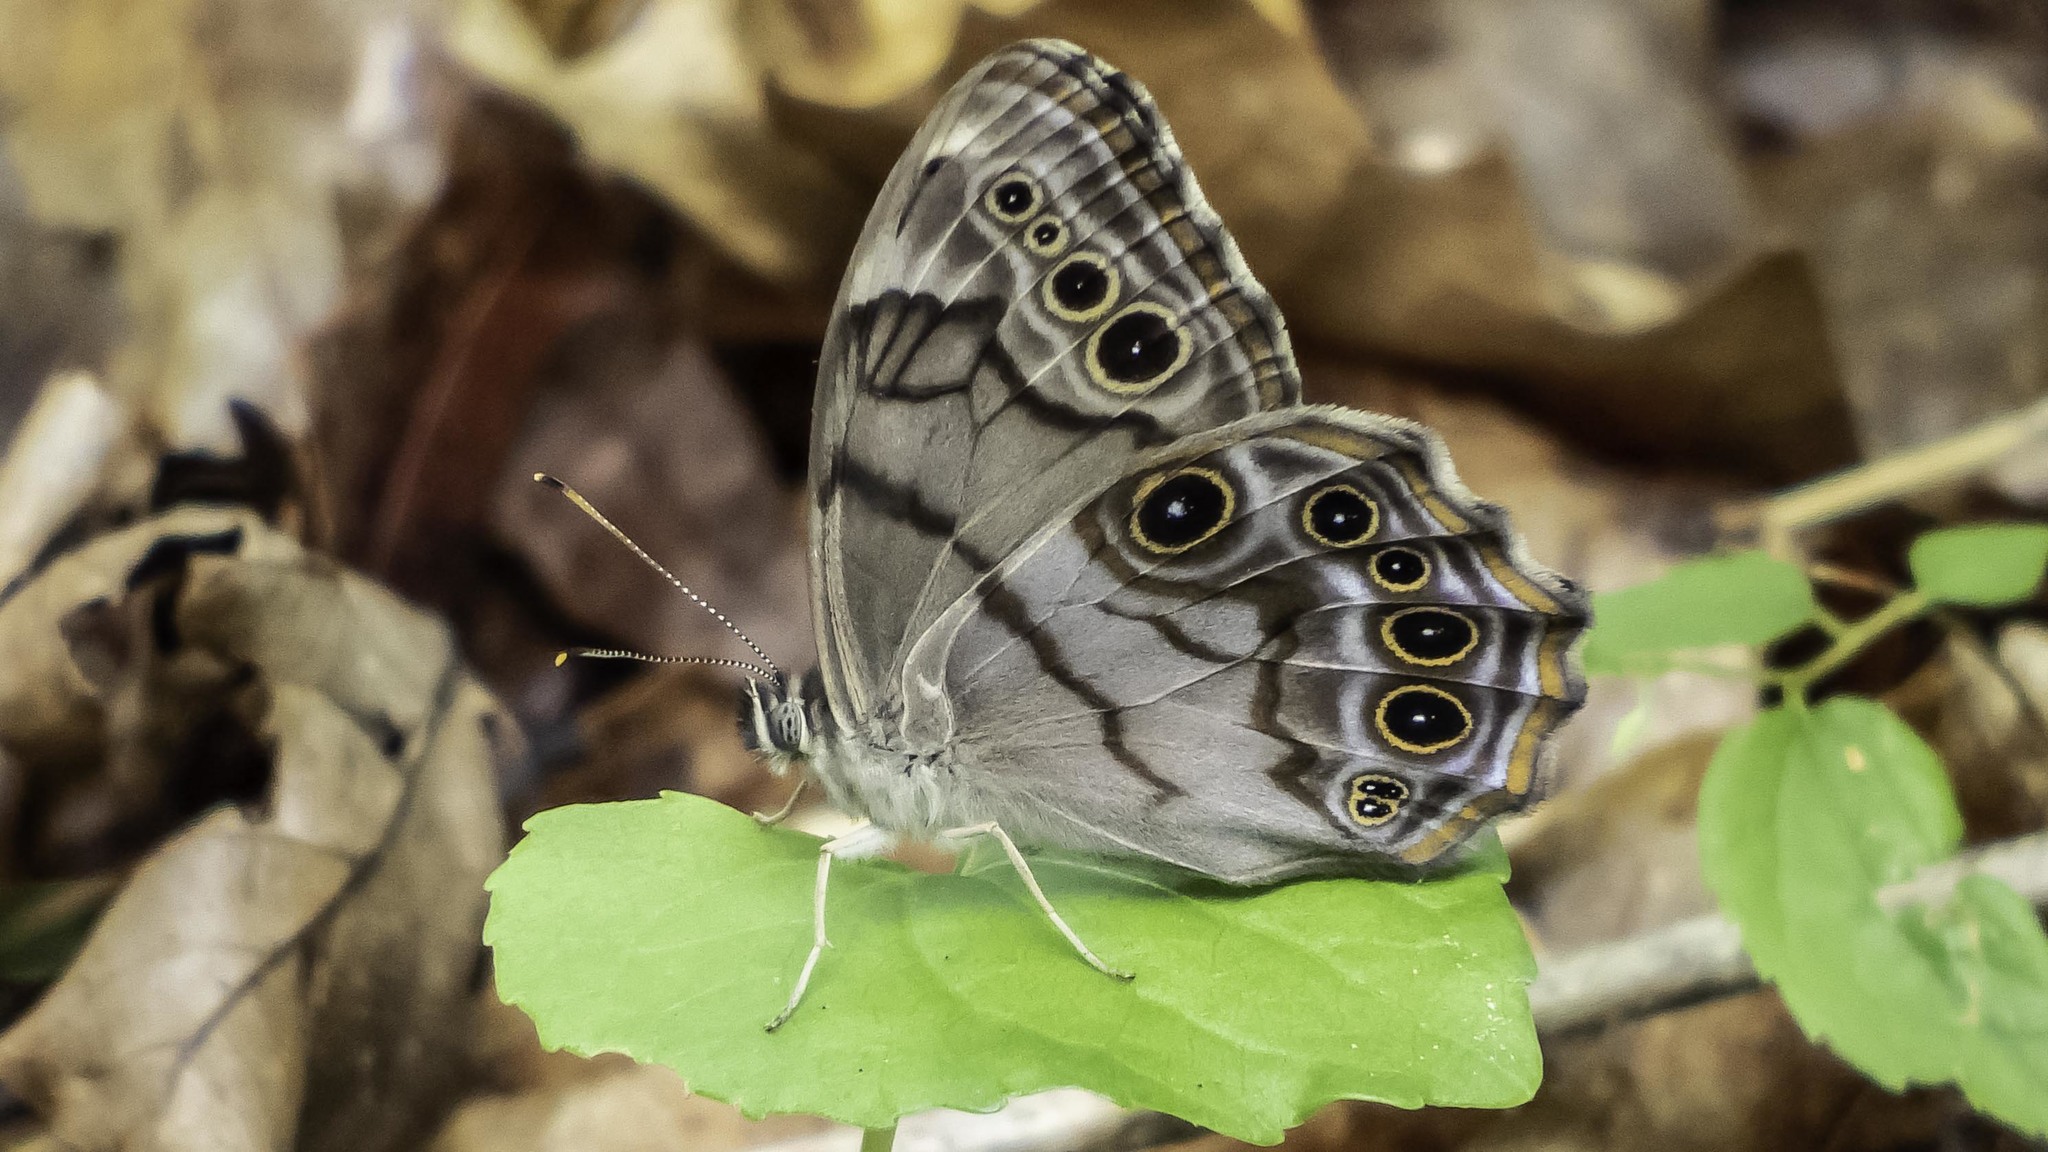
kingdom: Animalia
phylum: Arthropoda
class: Insecta
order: Lepidoptera
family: Nymphalidae
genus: Lethe
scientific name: Lethe anthedon
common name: Northern pearly-eye
